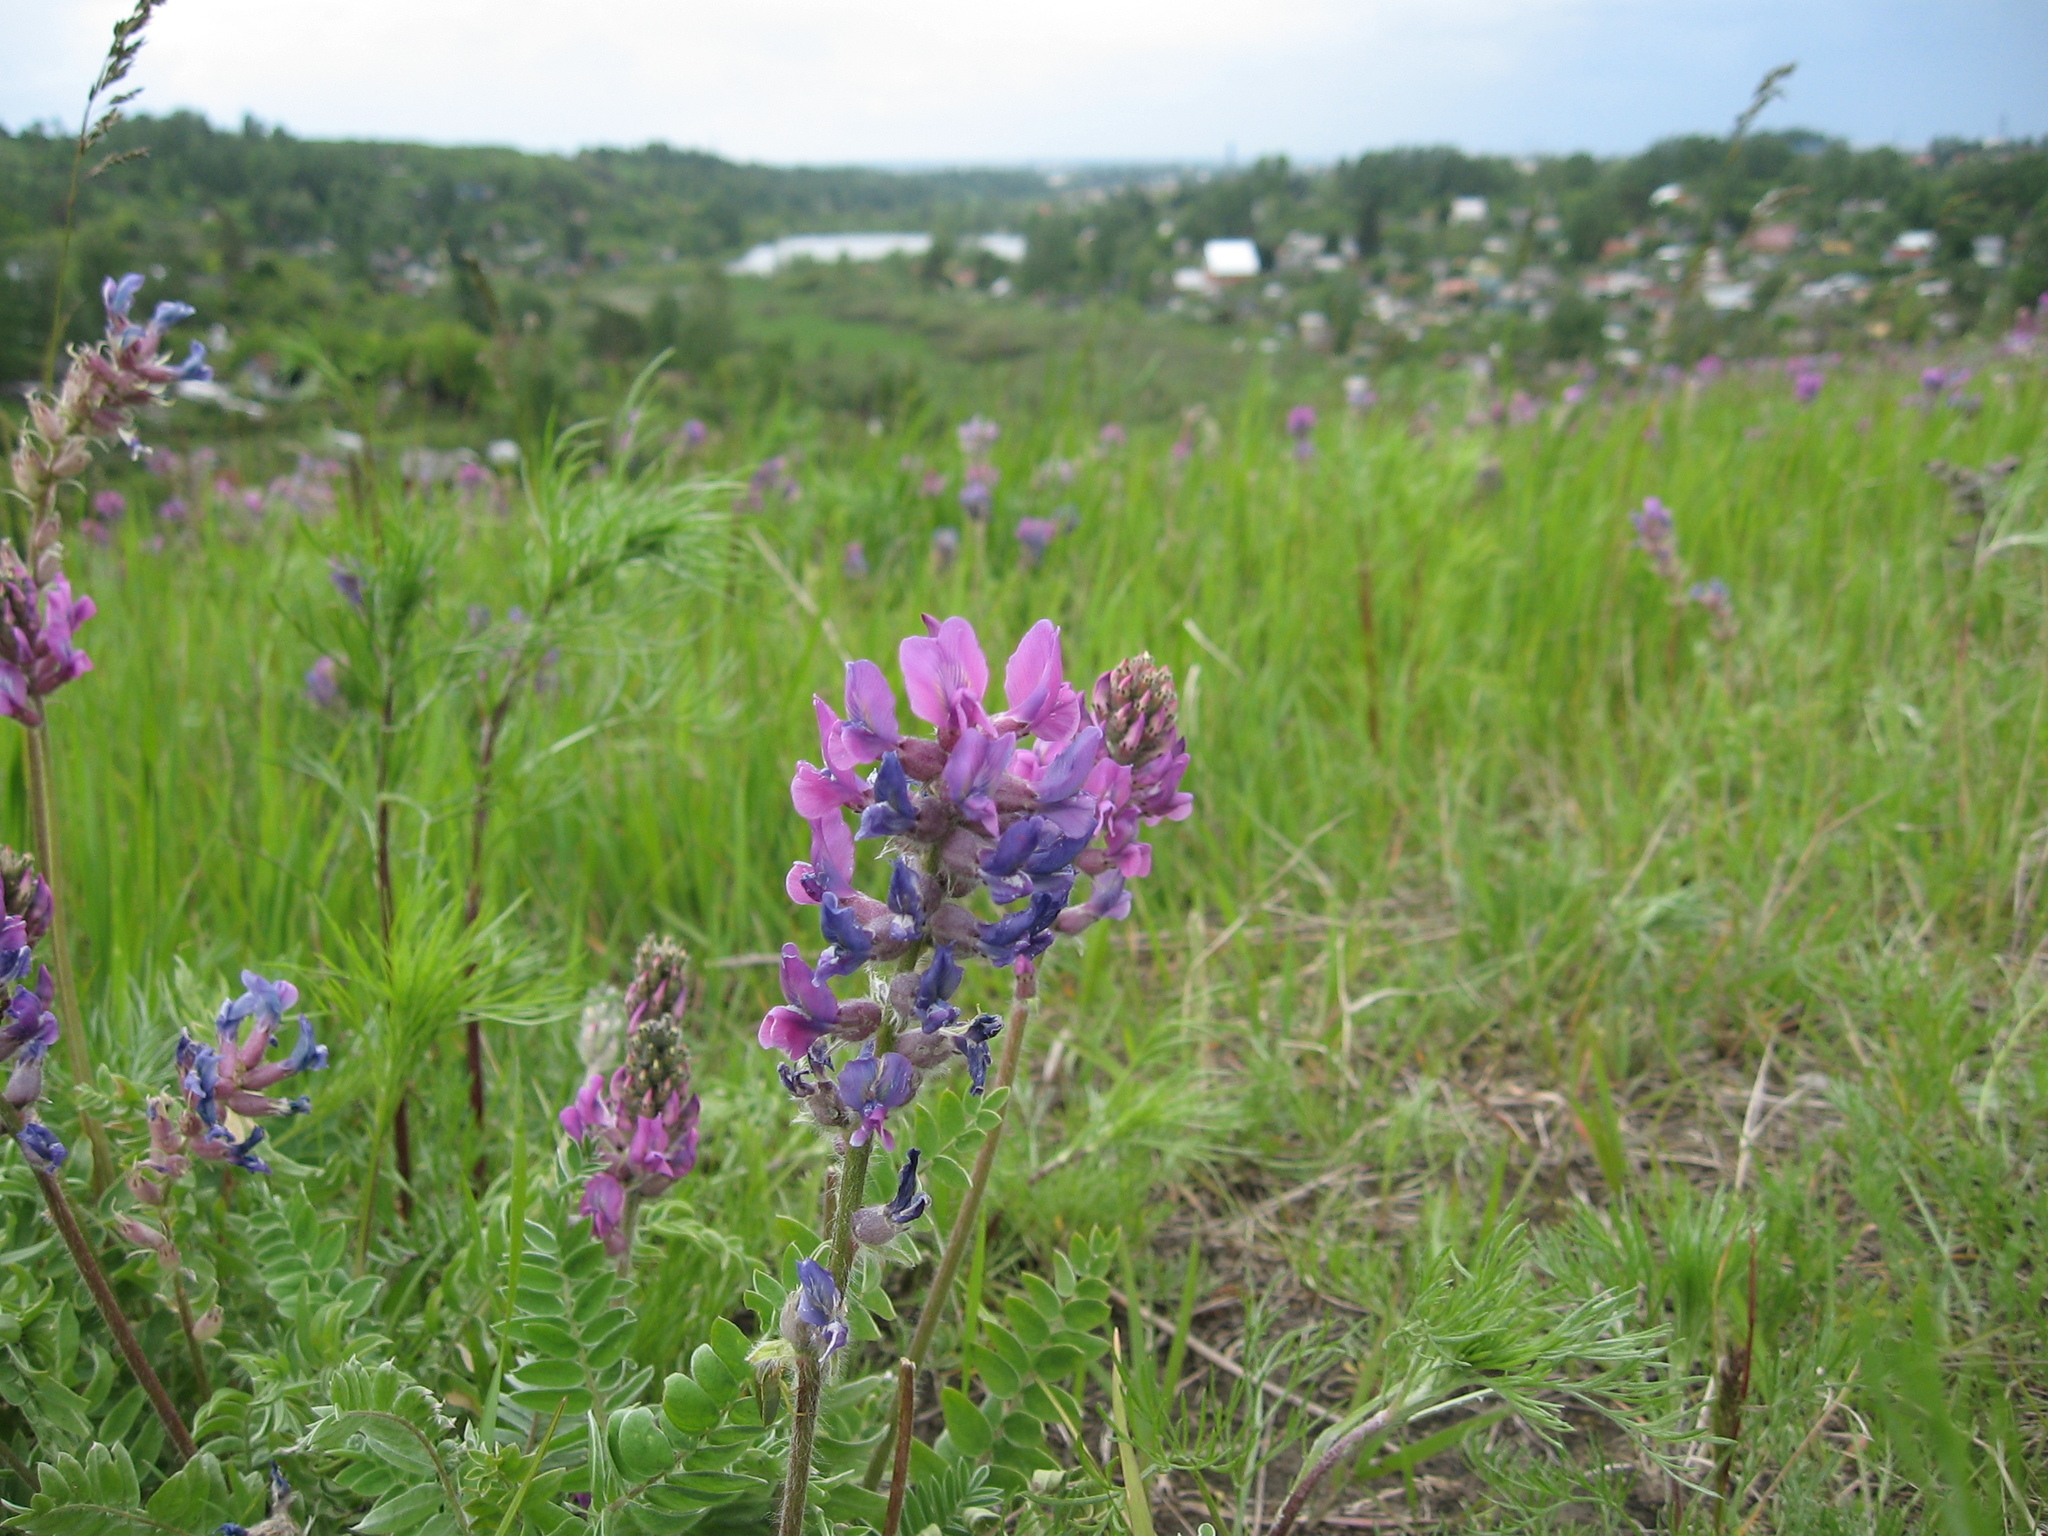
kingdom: Plantae
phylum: Tracheophyta
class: Magnoliopsida
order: Fabales
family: Fabaceae
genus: Oxytropis
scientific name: Oxytropis campanulata
